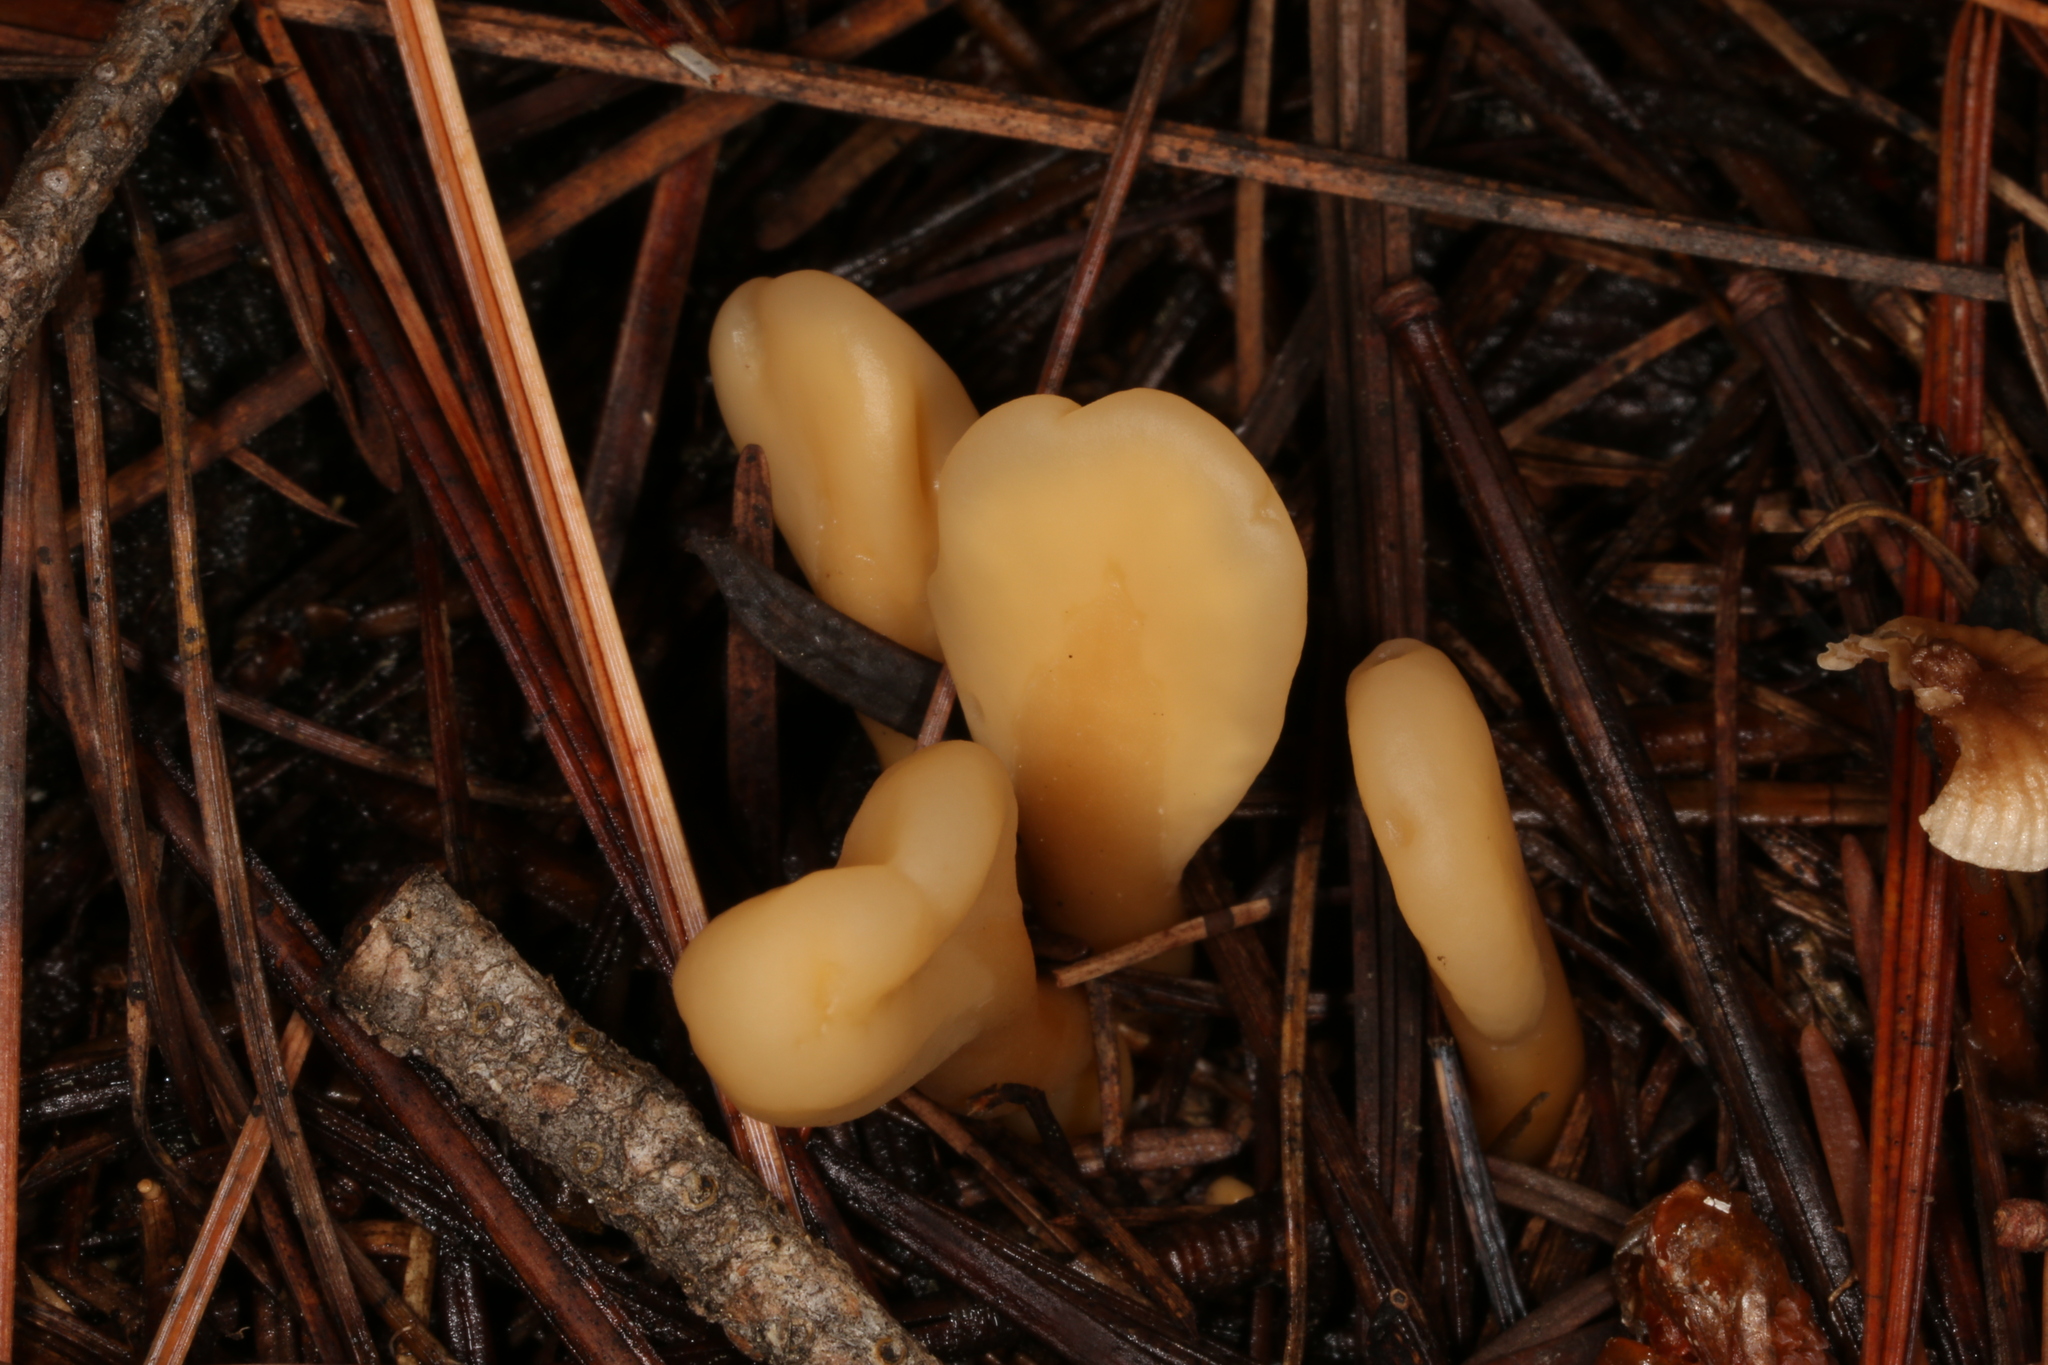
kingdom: Fungi
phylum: Ascomycota
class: Leotiomycetes
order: Rhytismatales
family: Cudoniaceae
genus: Spathularia
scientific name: Spathularia rufa
